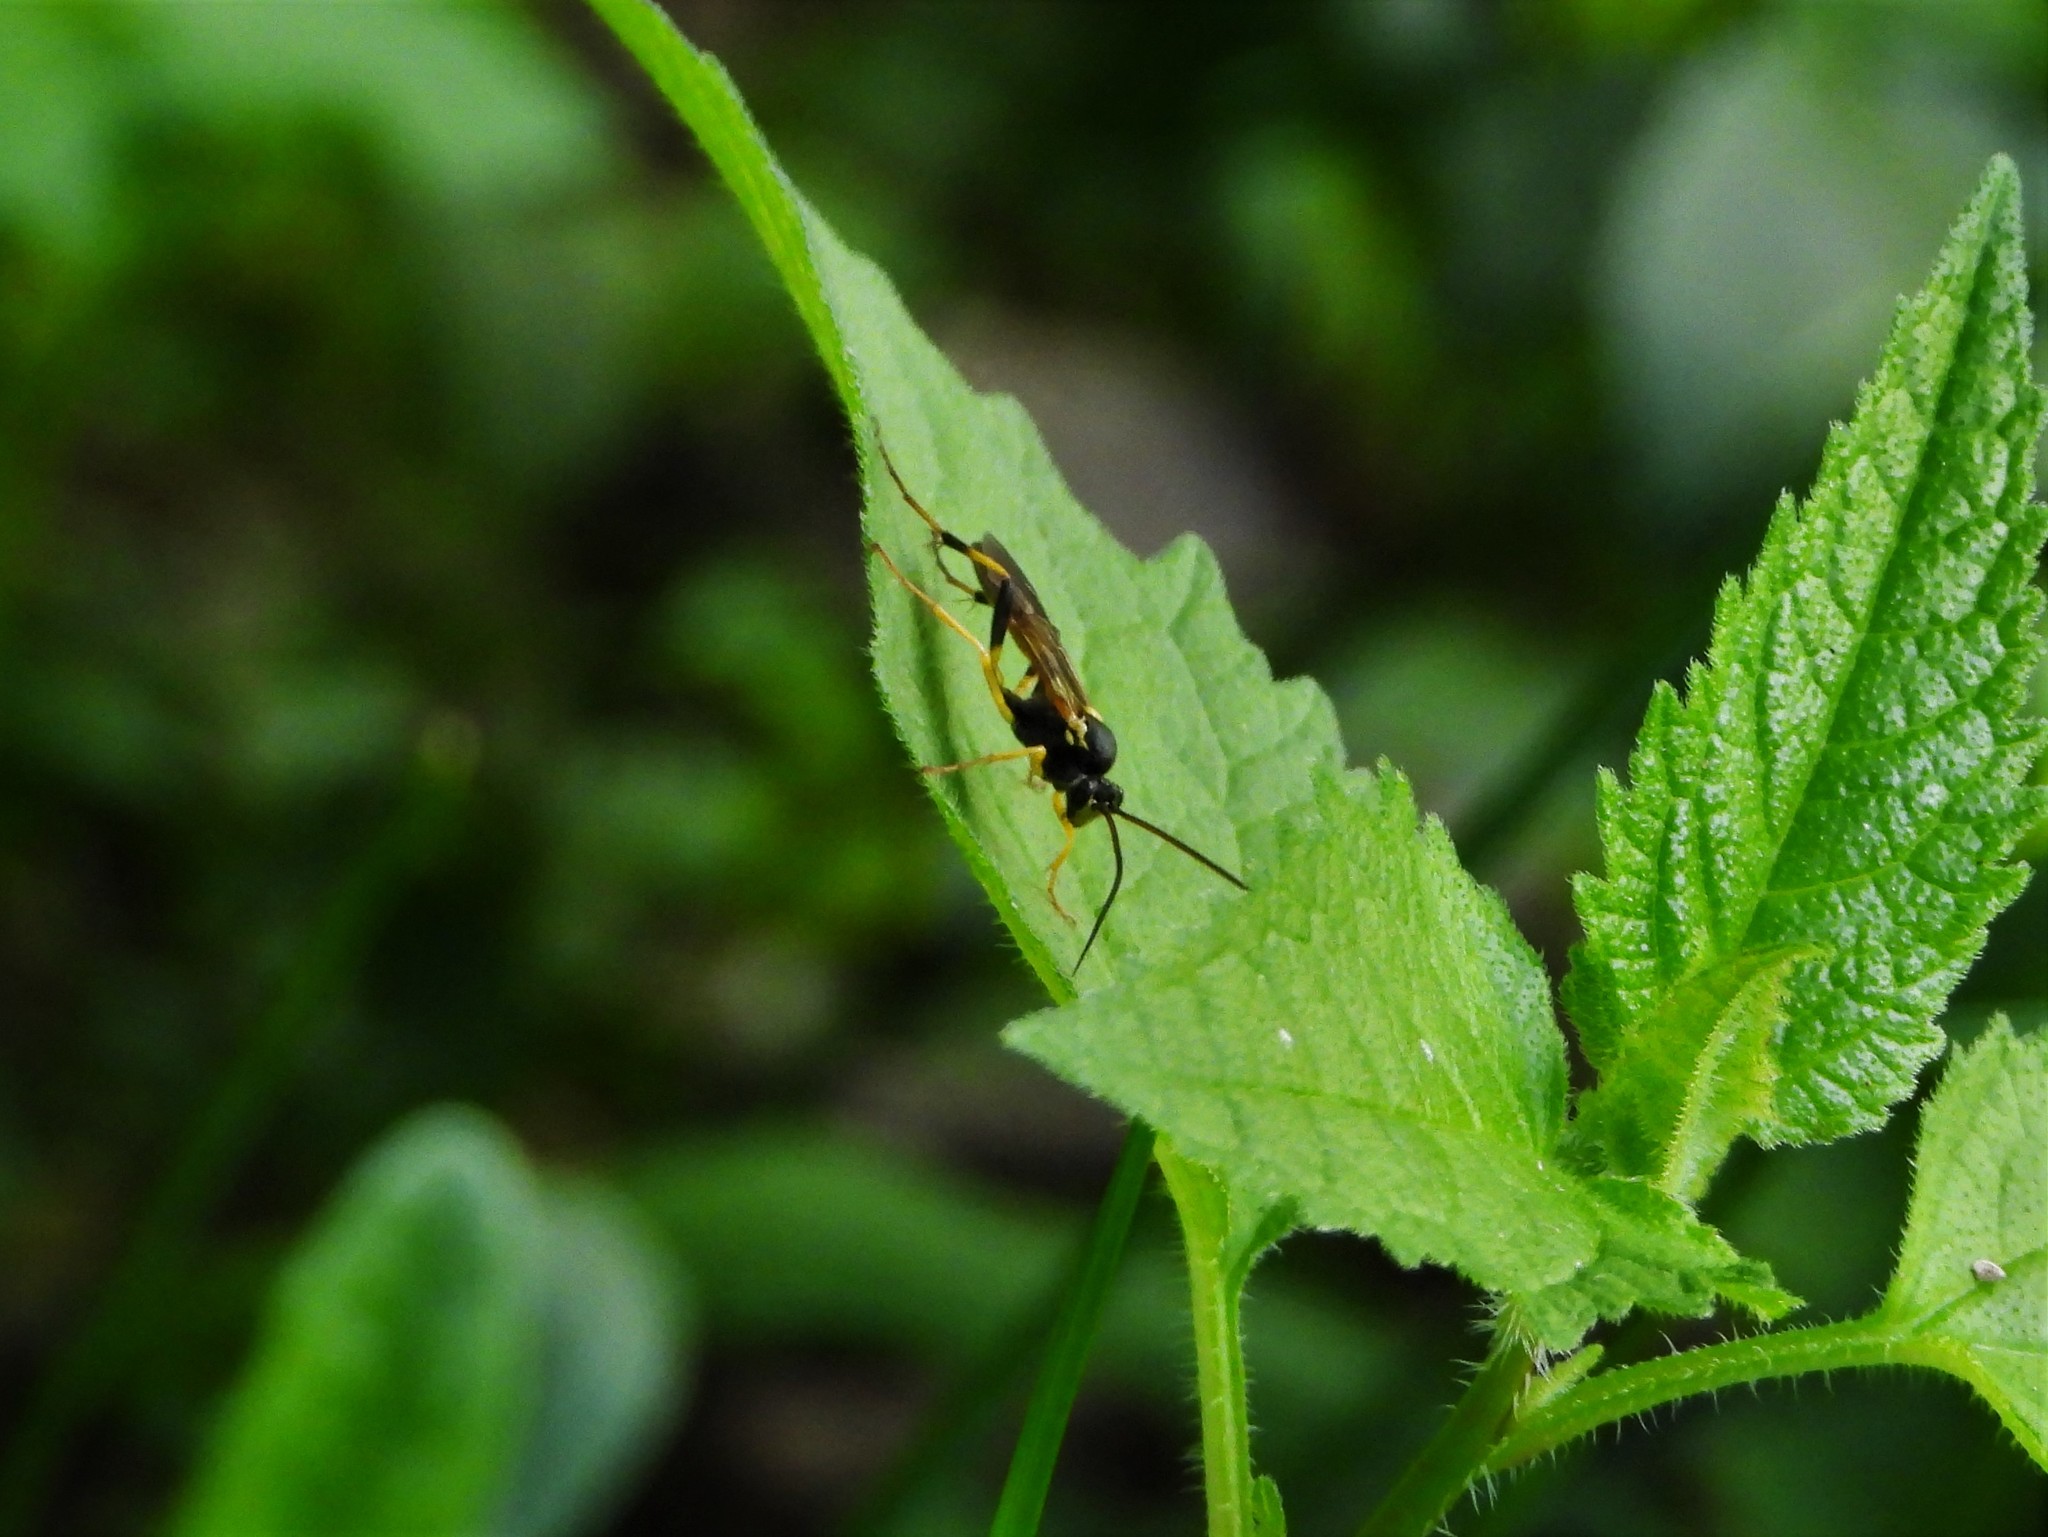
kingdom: Animalia
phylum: Arthropoda
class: Insecta
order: Hymenoptera
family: Ichneumonidae
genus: Amblyteles
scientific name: Amblyteles armatorius
